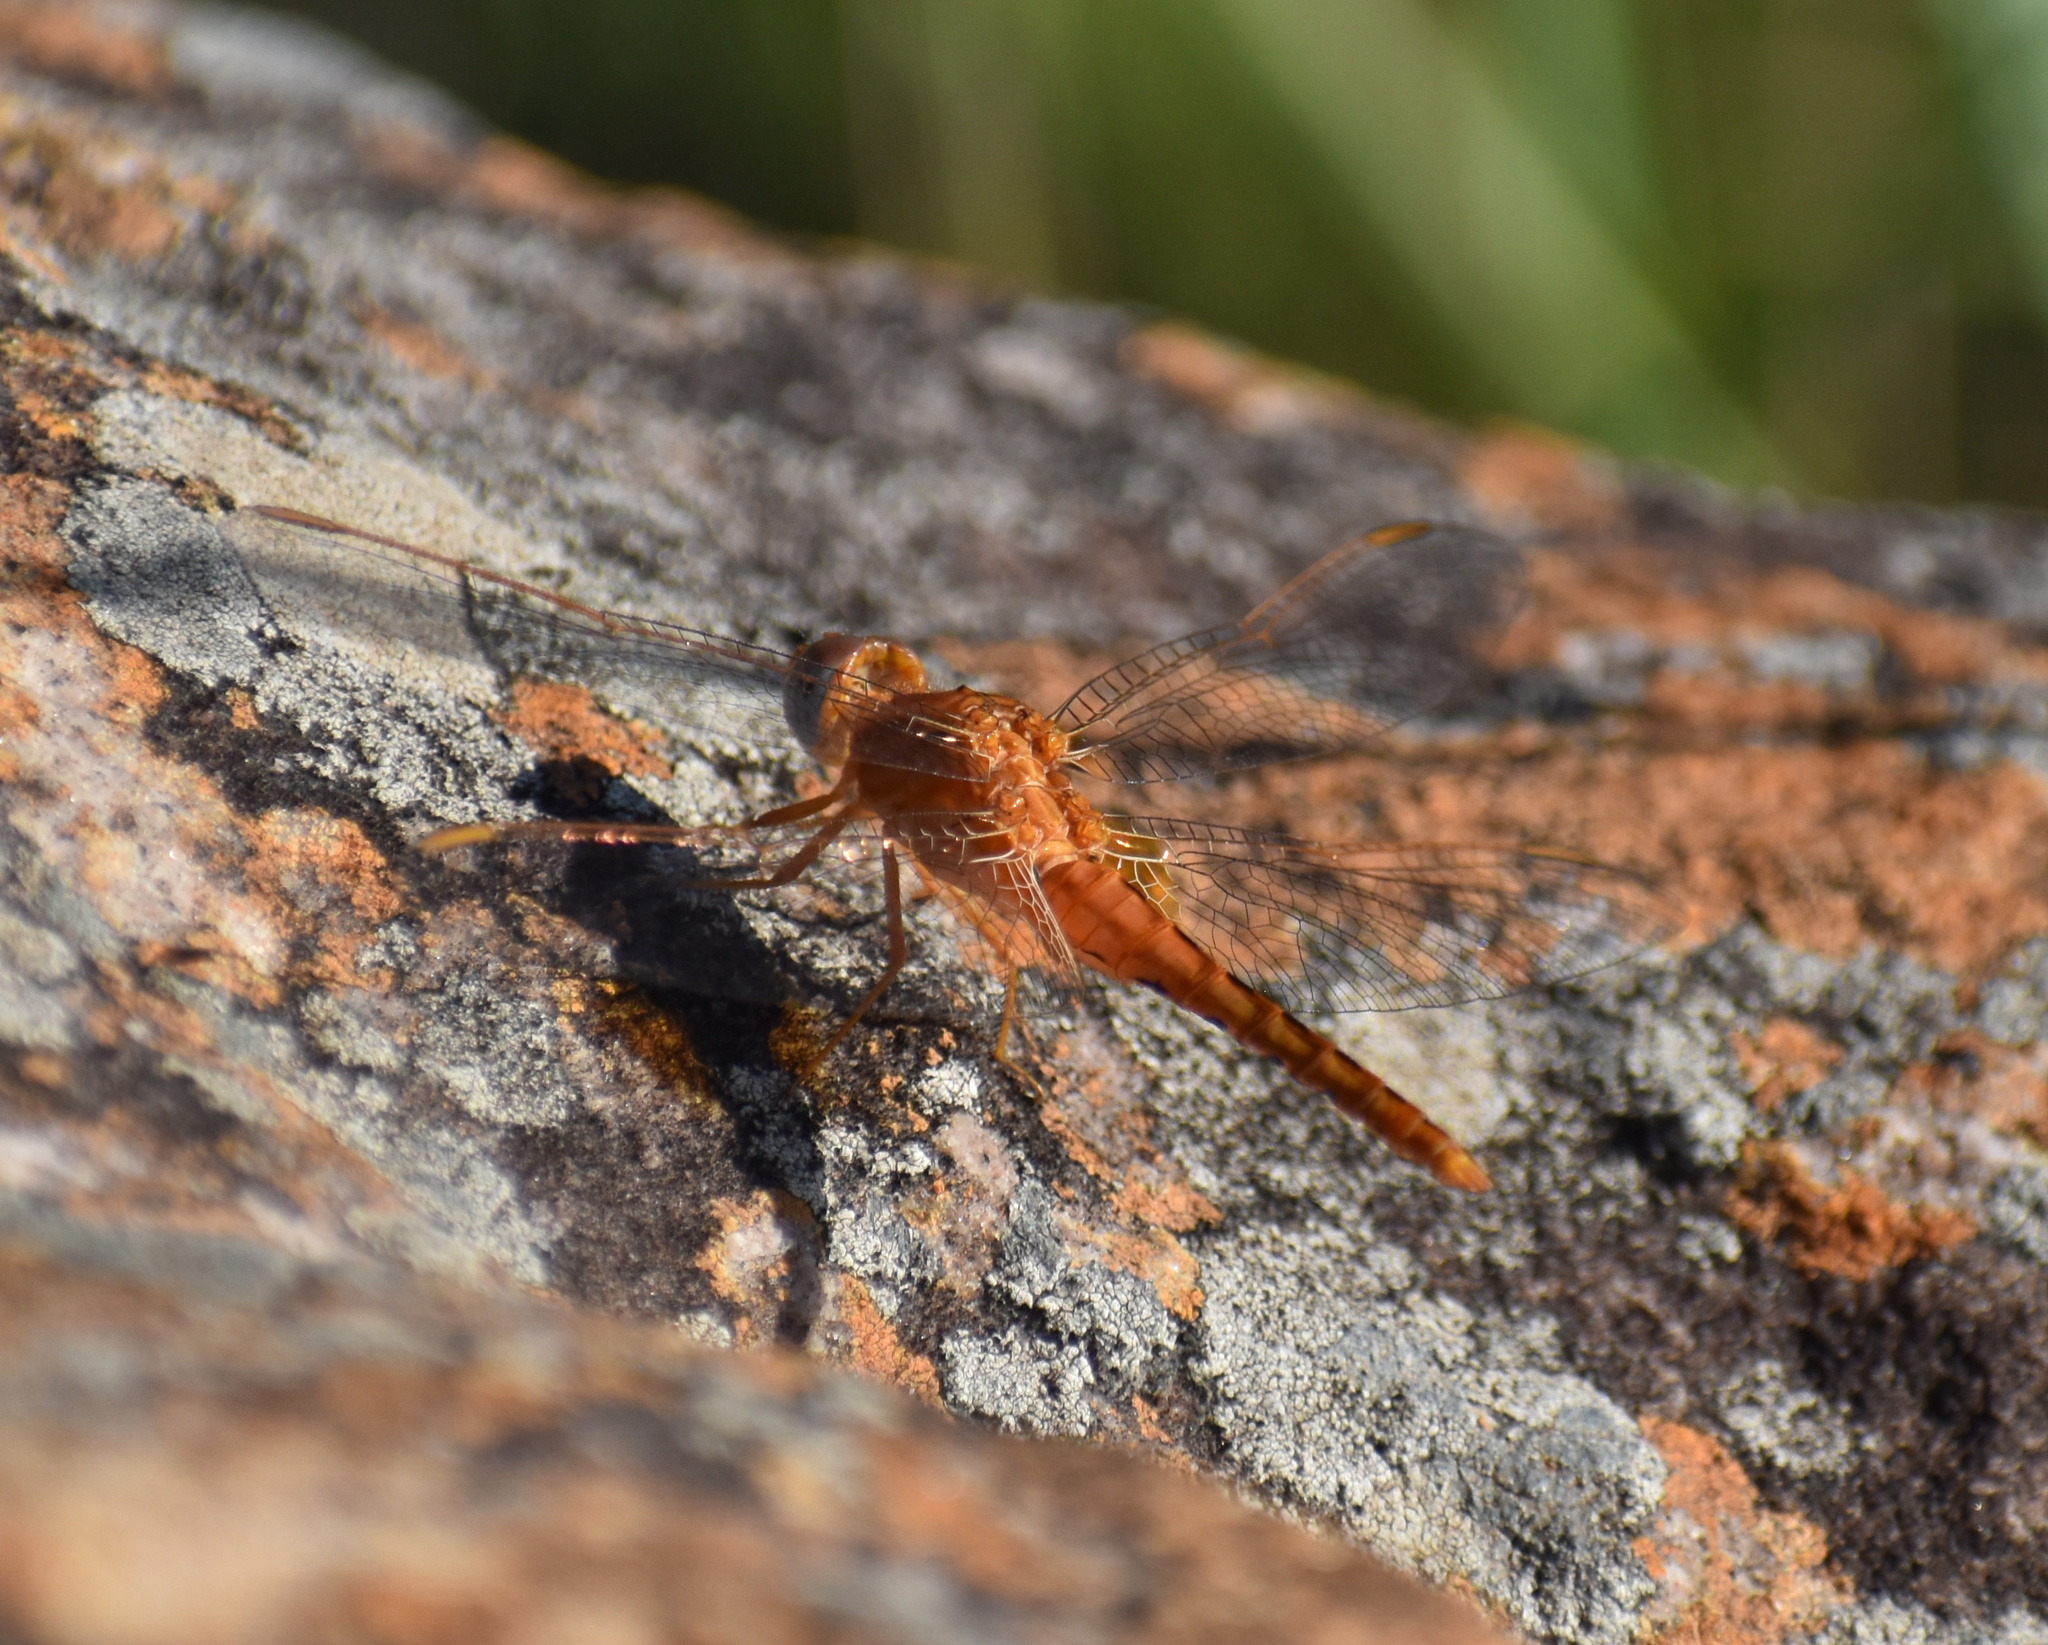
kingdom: Animalia
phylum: Arthropoda
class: Insecta
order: Odonata
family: Libellulidae
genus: Crocothemis
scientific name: Crocothemis sanguinolenta
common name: Little scarlet
